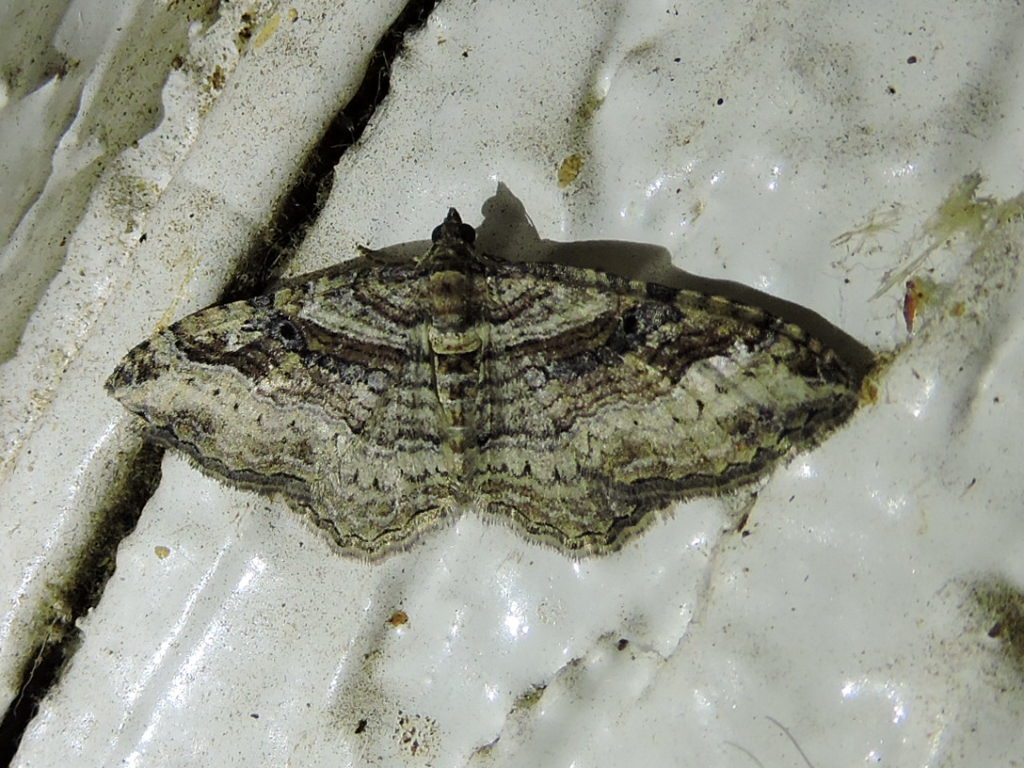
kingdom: Animalia
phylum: Arthropoda
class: Insecta
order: Lepidoptera
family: Geometridae
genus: Costaconvexa
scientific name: Costaconvexa centrostrigaria
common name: Bent-line carpet
